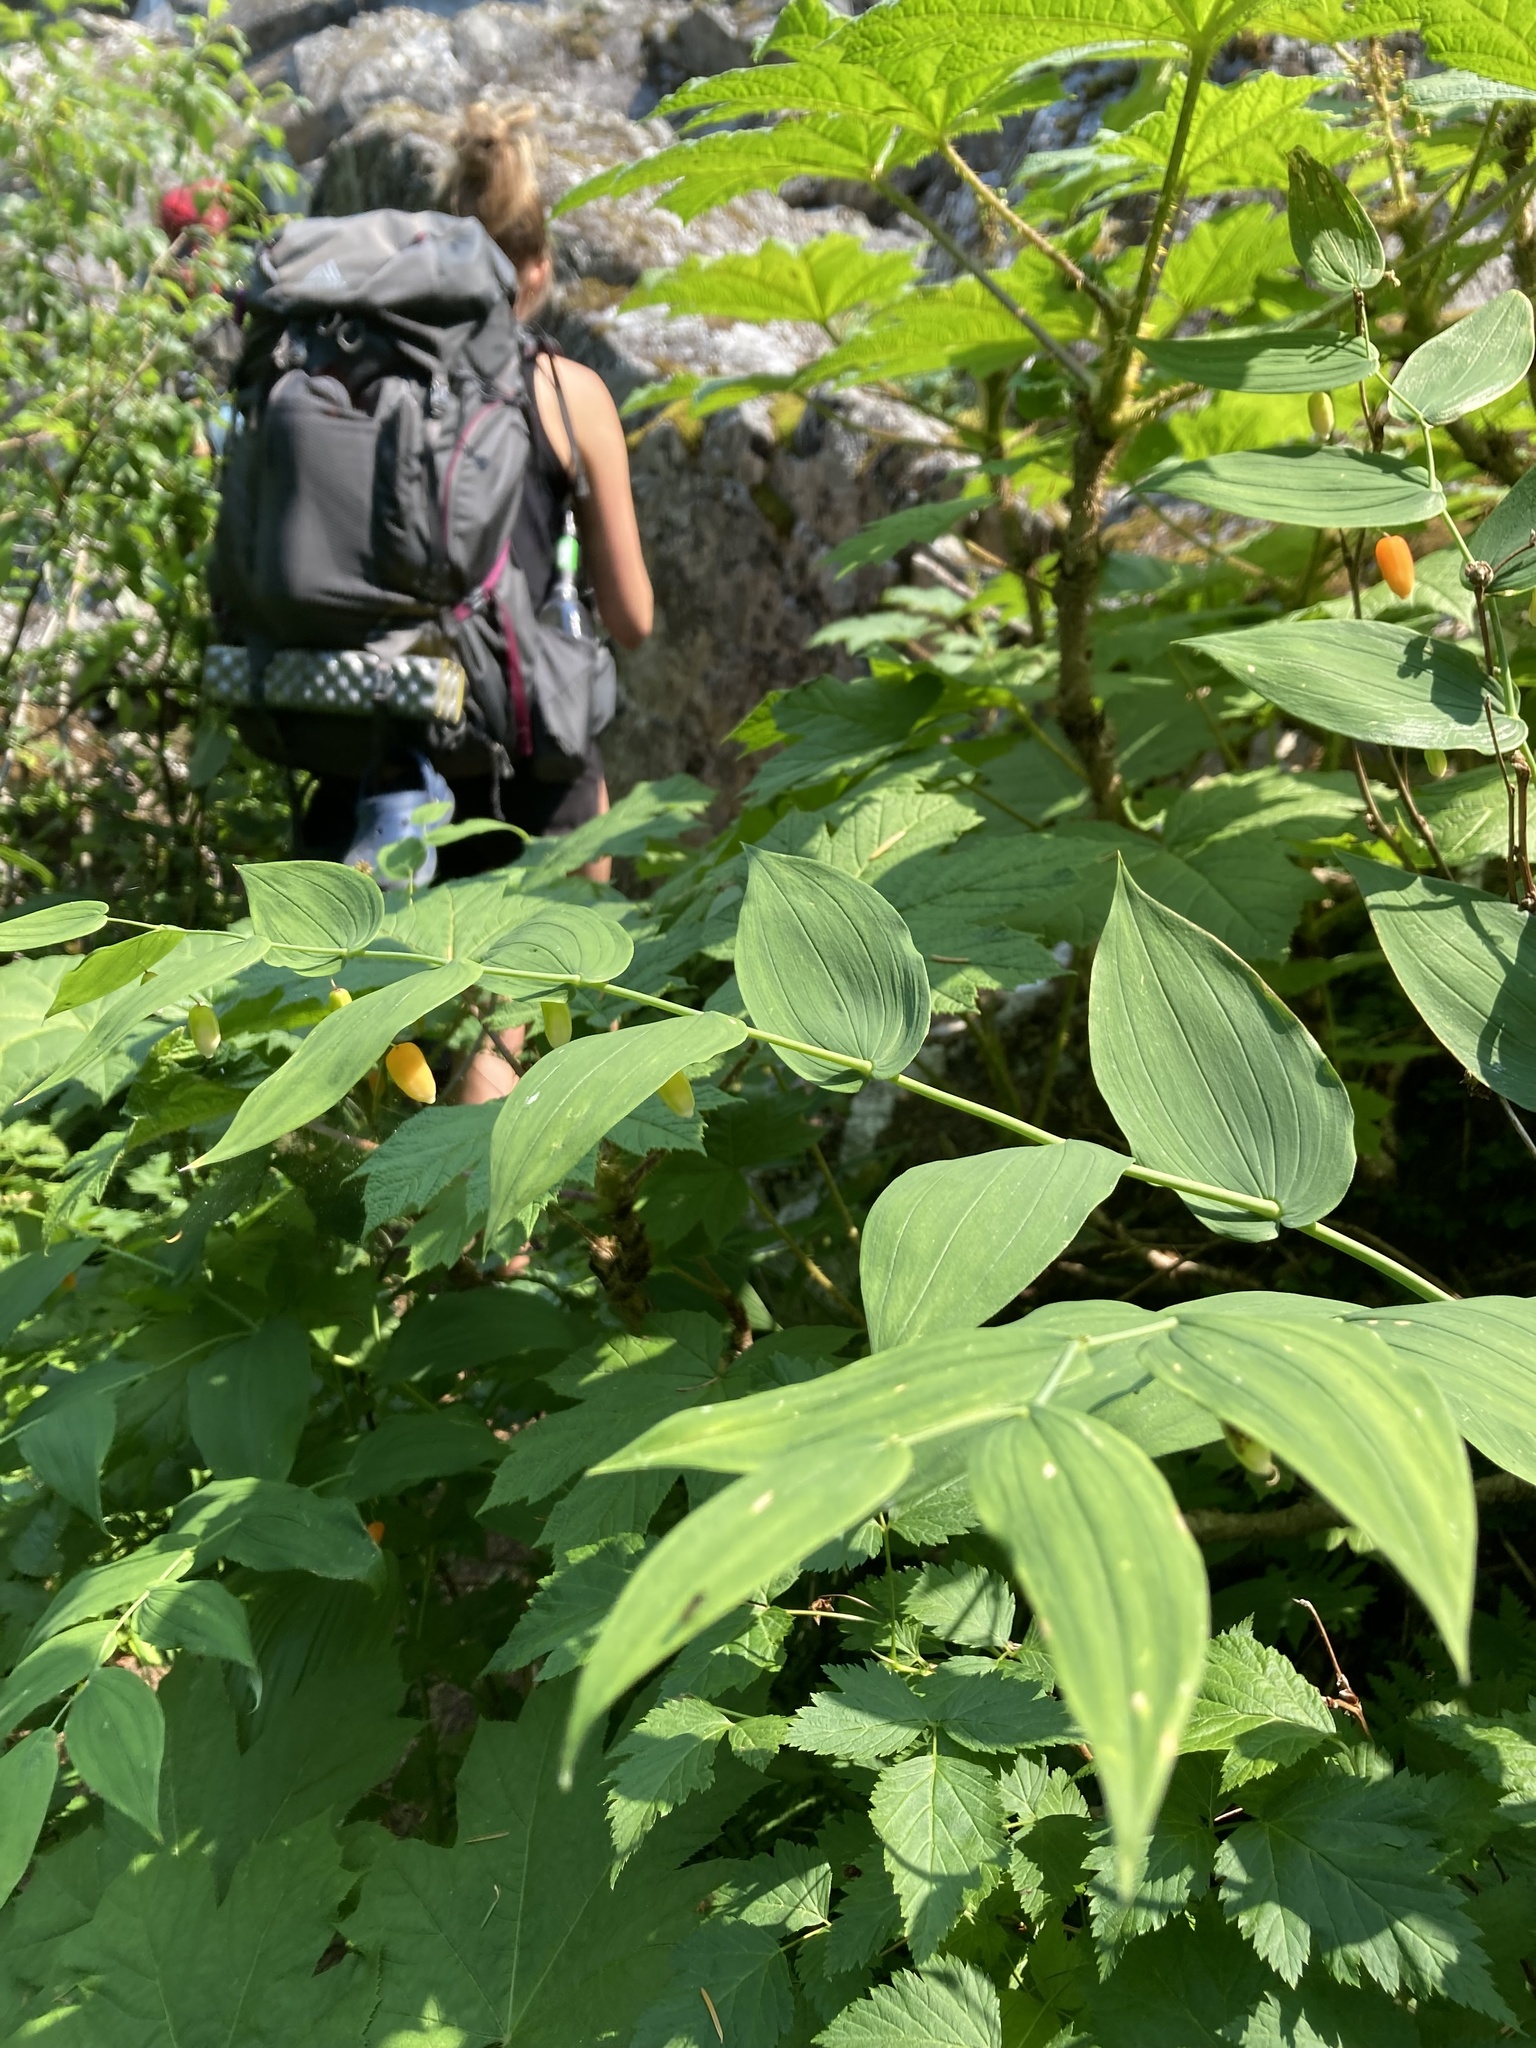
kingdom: Plantae
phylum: Tracheophyta
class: Liliopsida
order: Liliales
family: Liliaceae
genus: Streptopus
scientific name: Streptopus amplexifolius
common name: Clasp twisted stalk
